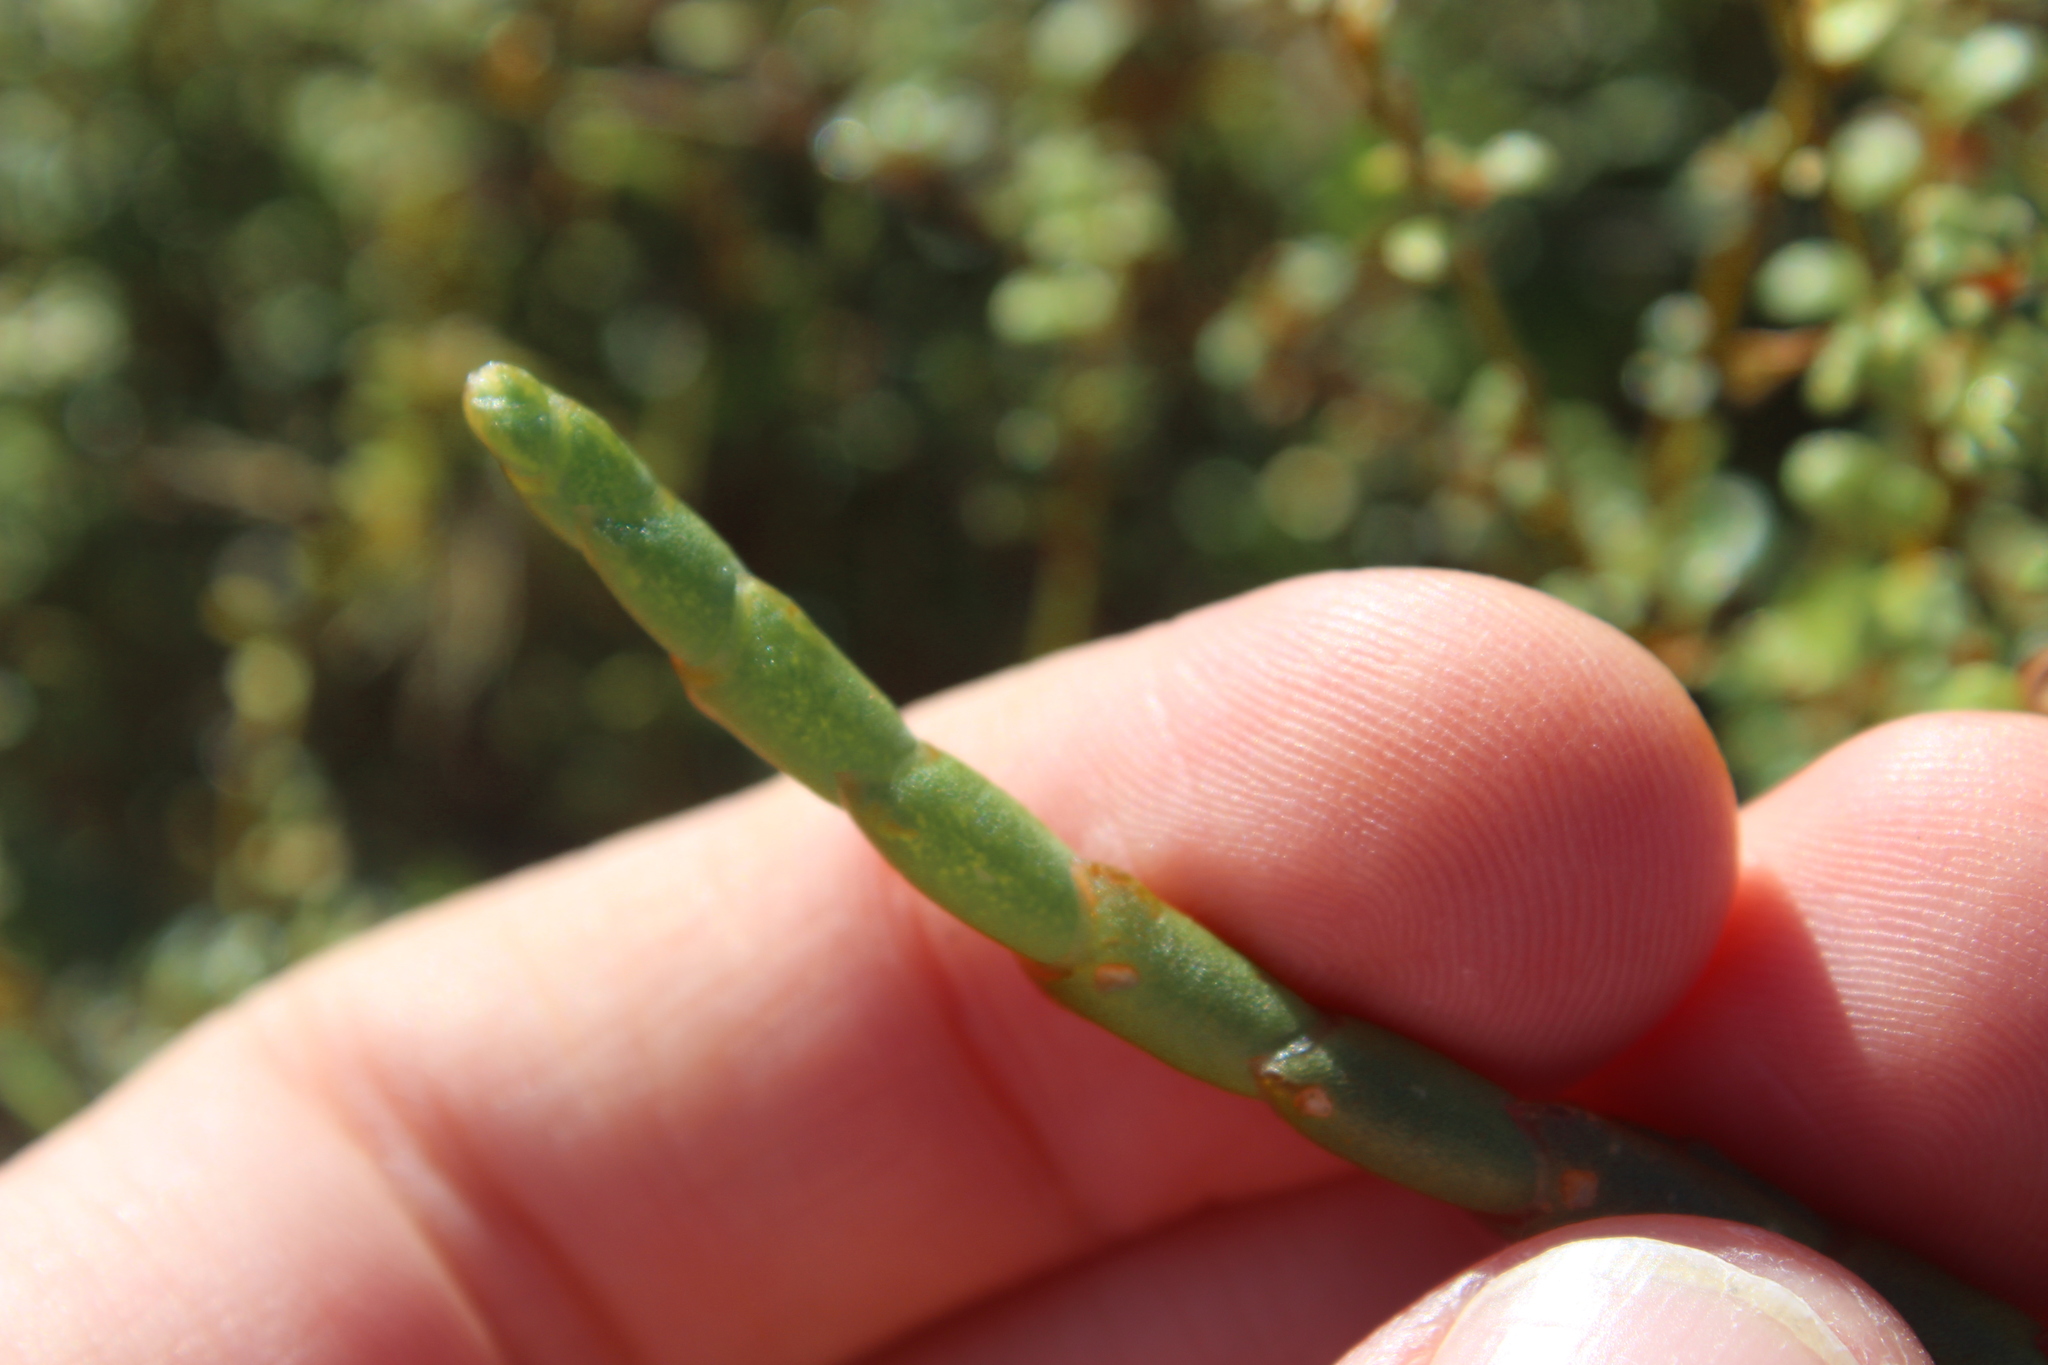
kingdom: Plantae
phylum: Tracheophyta
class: Magnoliopsida
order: Caryophyllales
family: Amaranthaceae
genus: Salicornia
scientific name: Salicornia quinqueflora
